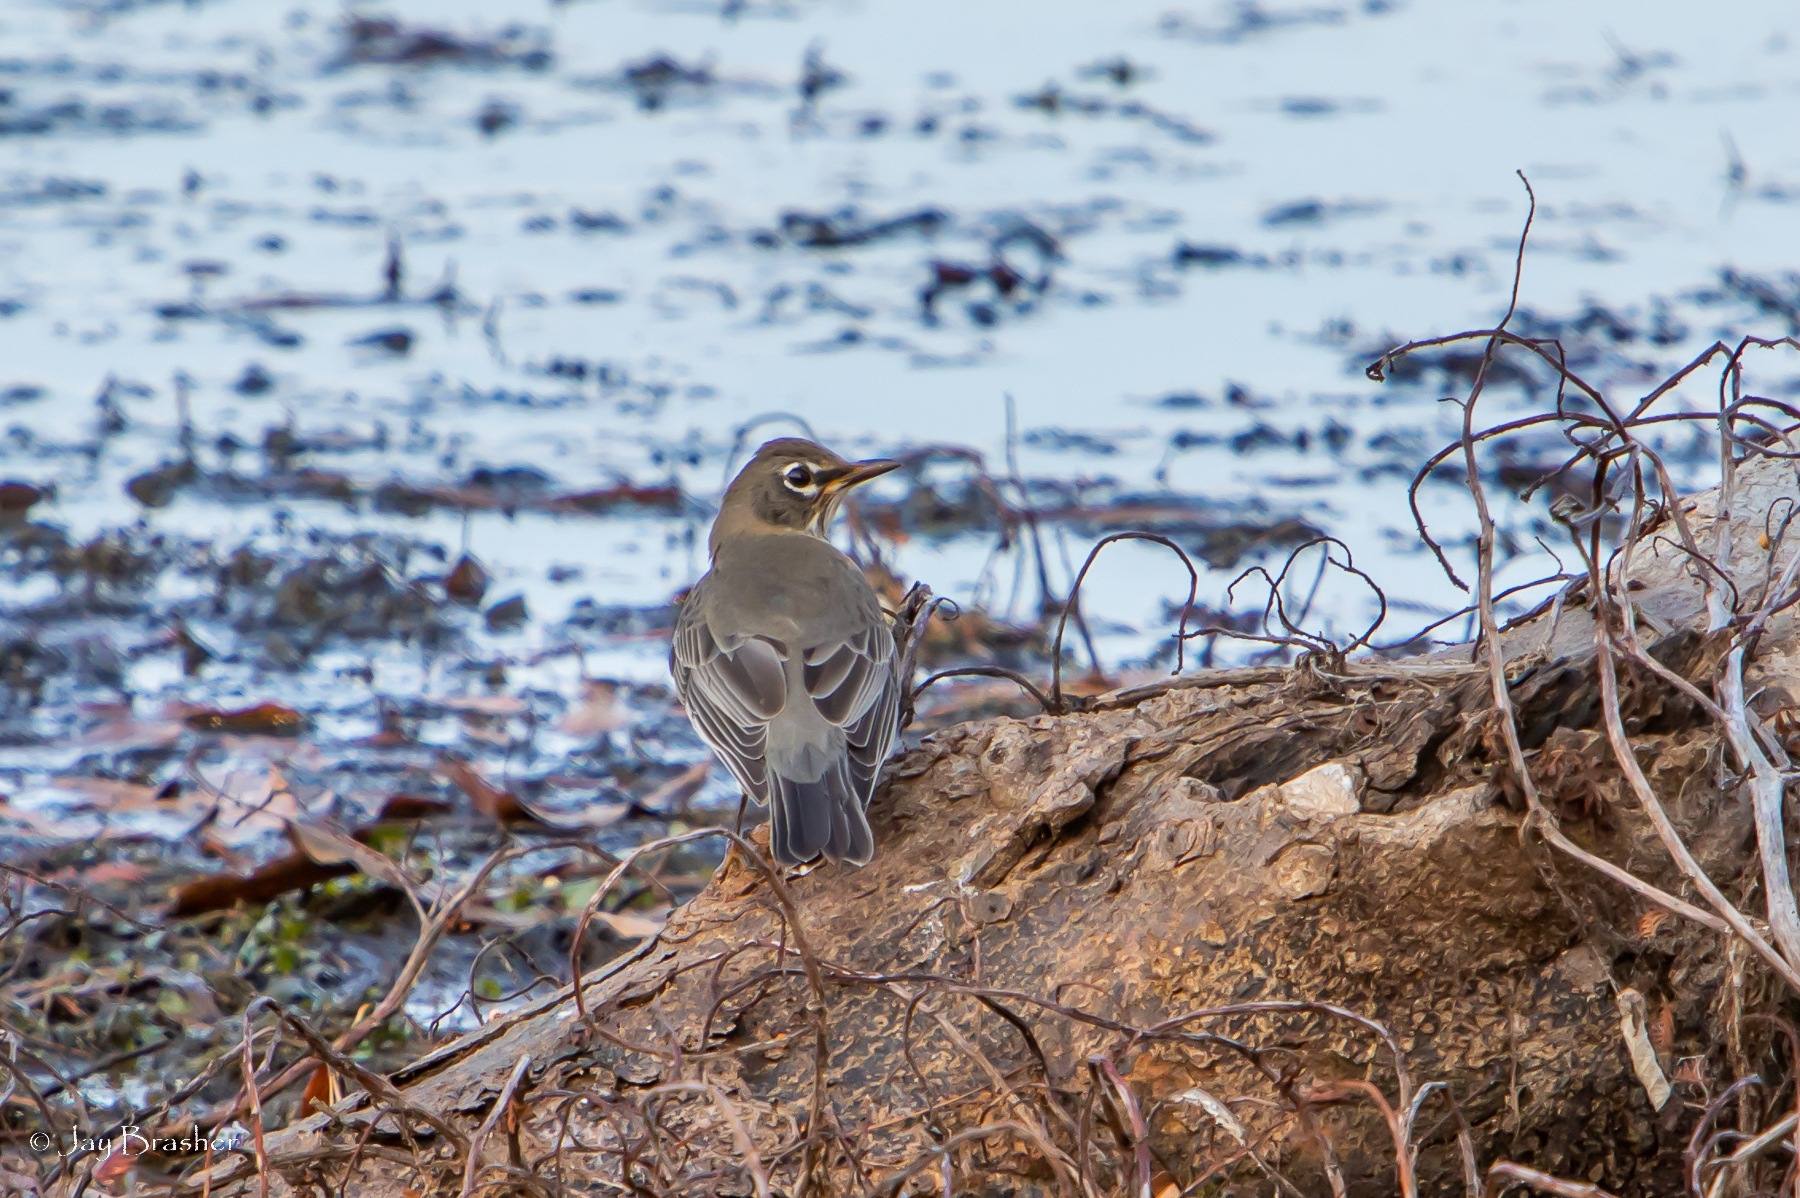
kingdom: Animalia
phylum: Chordata
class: Aves
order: Passeriformes
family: Turdidae
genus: Turdus
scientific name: Turdus migratorius
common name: American robin
